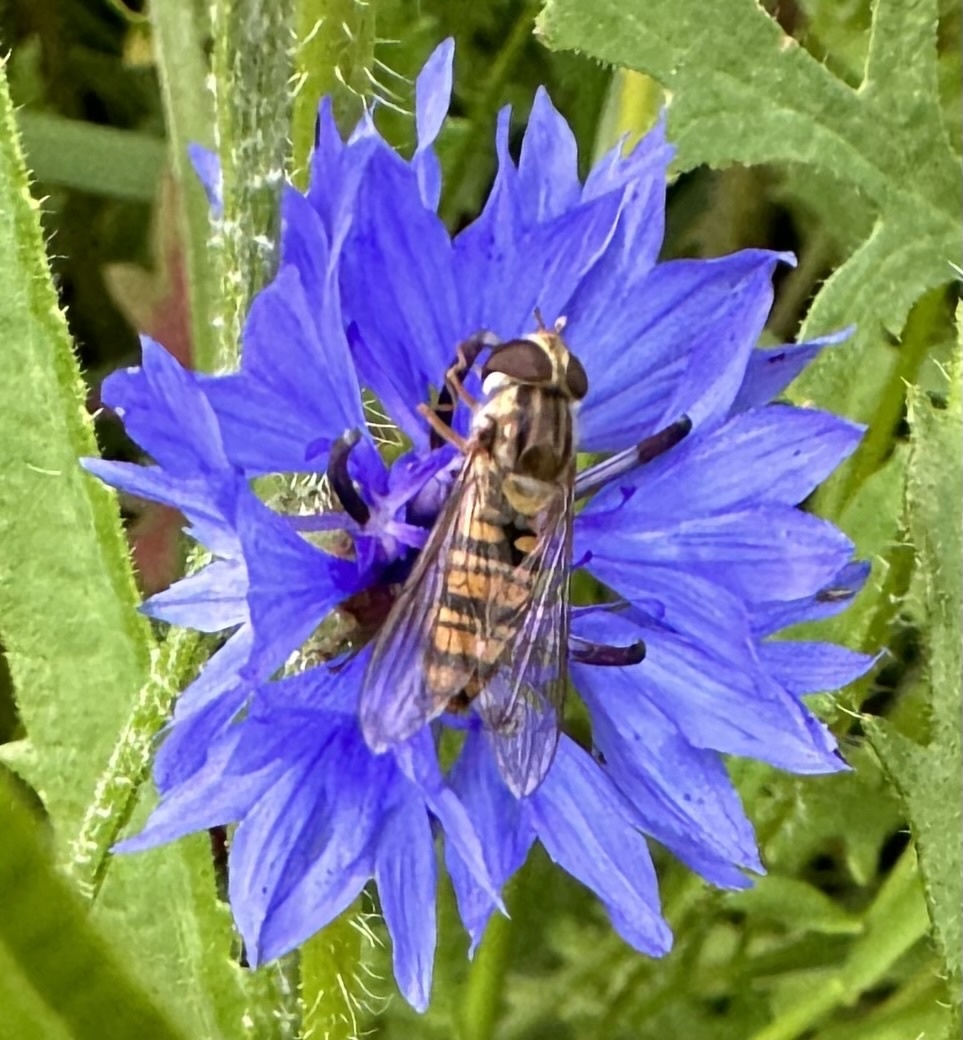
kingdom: Animalia
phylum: Arthropoda
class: Insecta
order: Diptera
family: Syrphidae
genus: Episyrphus
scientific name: Episyrphus balteatus
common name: Marmalade hoverfly
